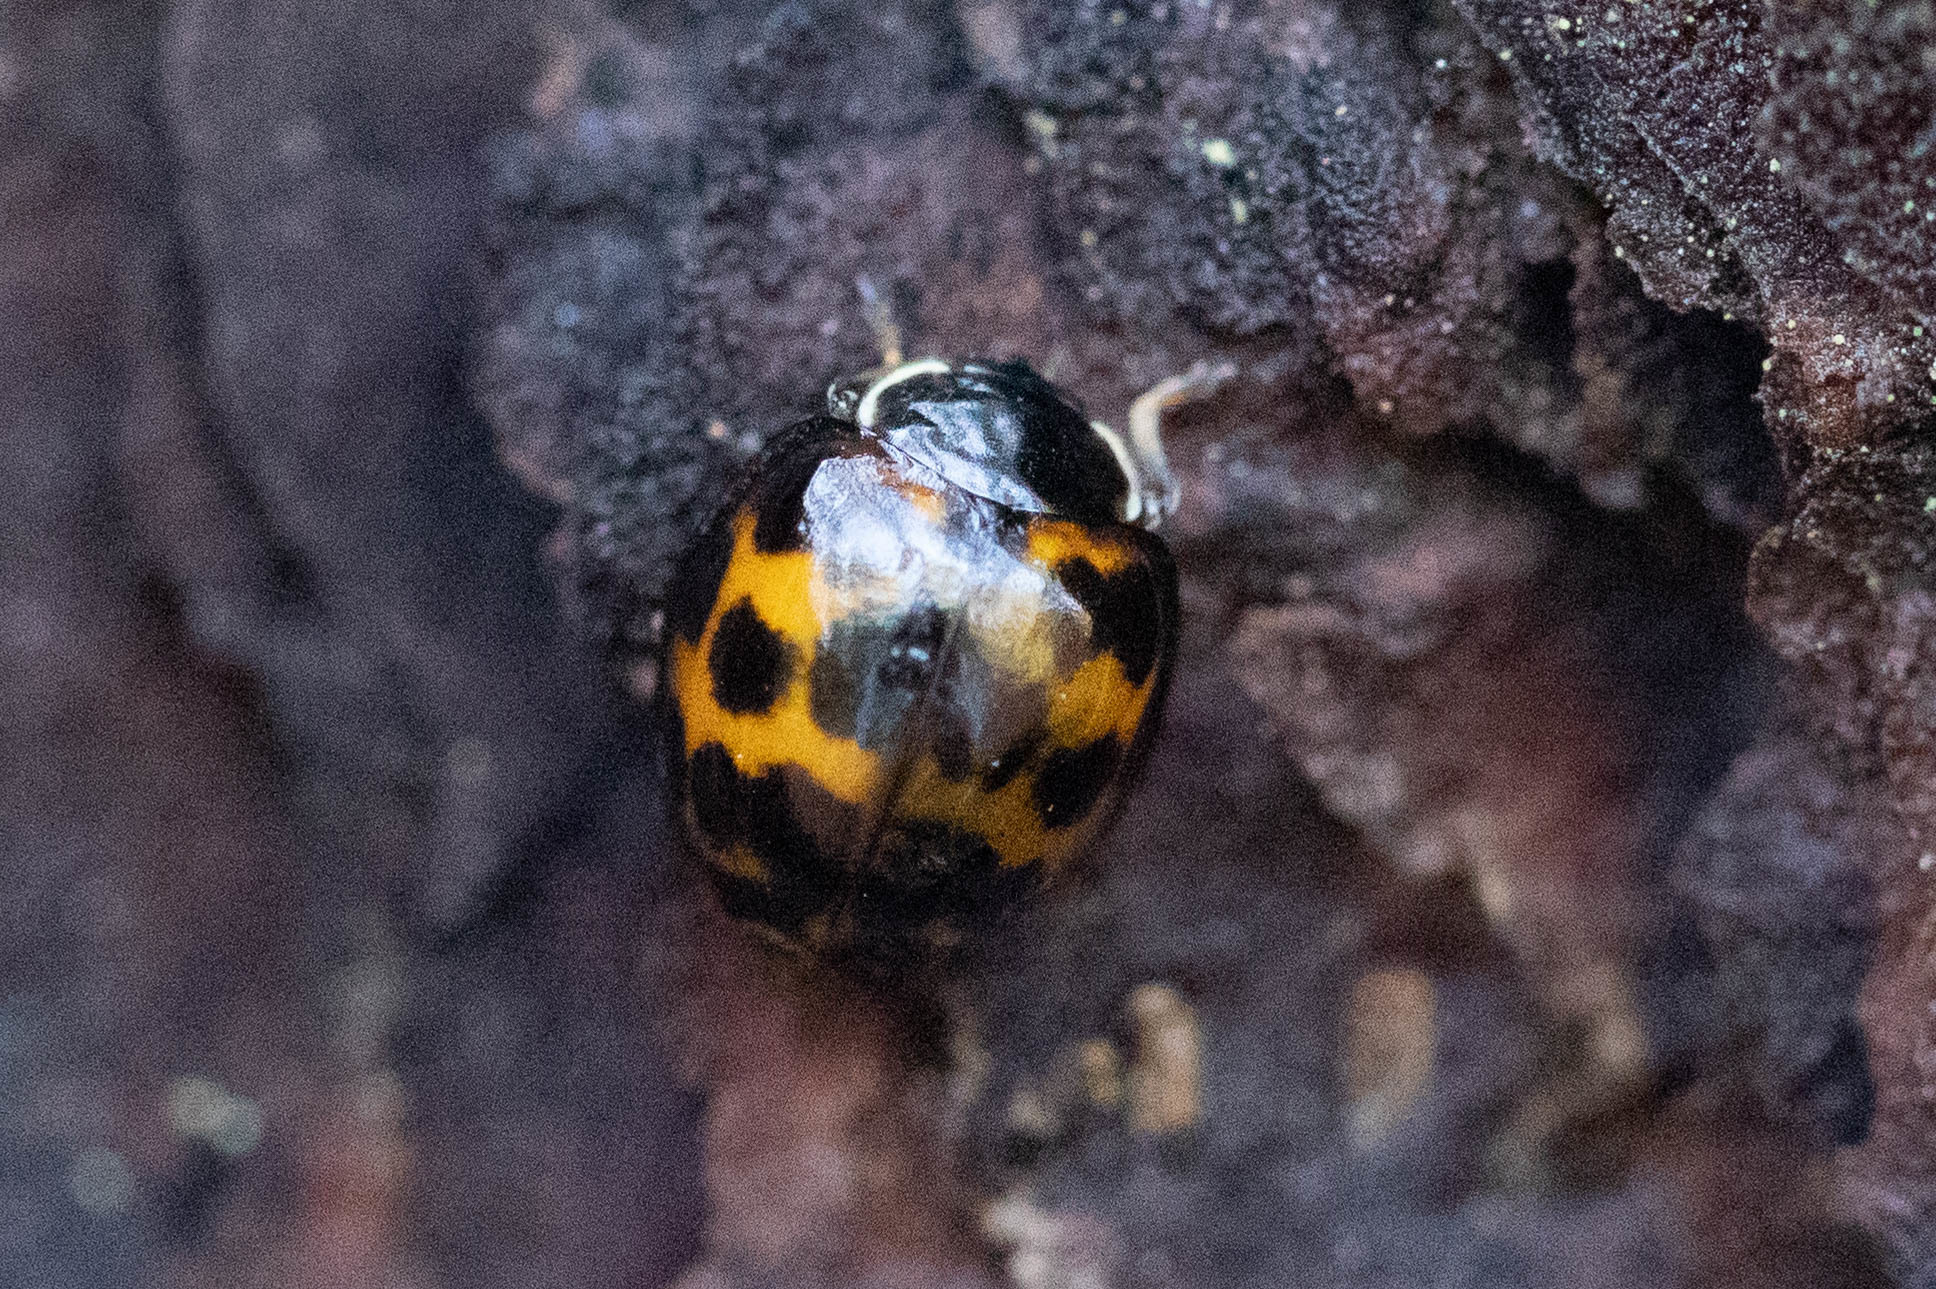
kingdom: Animalia
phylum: Arthropoda
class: Insecta
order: Coleoptera
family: Coccinellidae
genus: Harmonia
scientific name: Harmonia axyridis
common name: Harlequin ladybird
